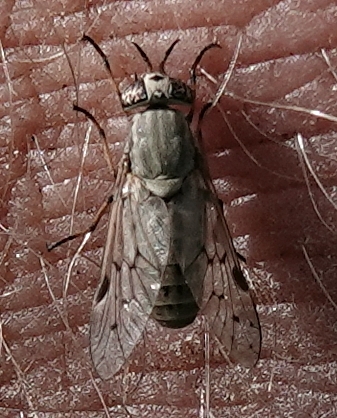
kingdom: Animalia
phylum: Arthropoda
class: Insecta
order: Diptera
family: Tabanidae
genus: Silvius
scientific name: Silvius quadrivittatus
